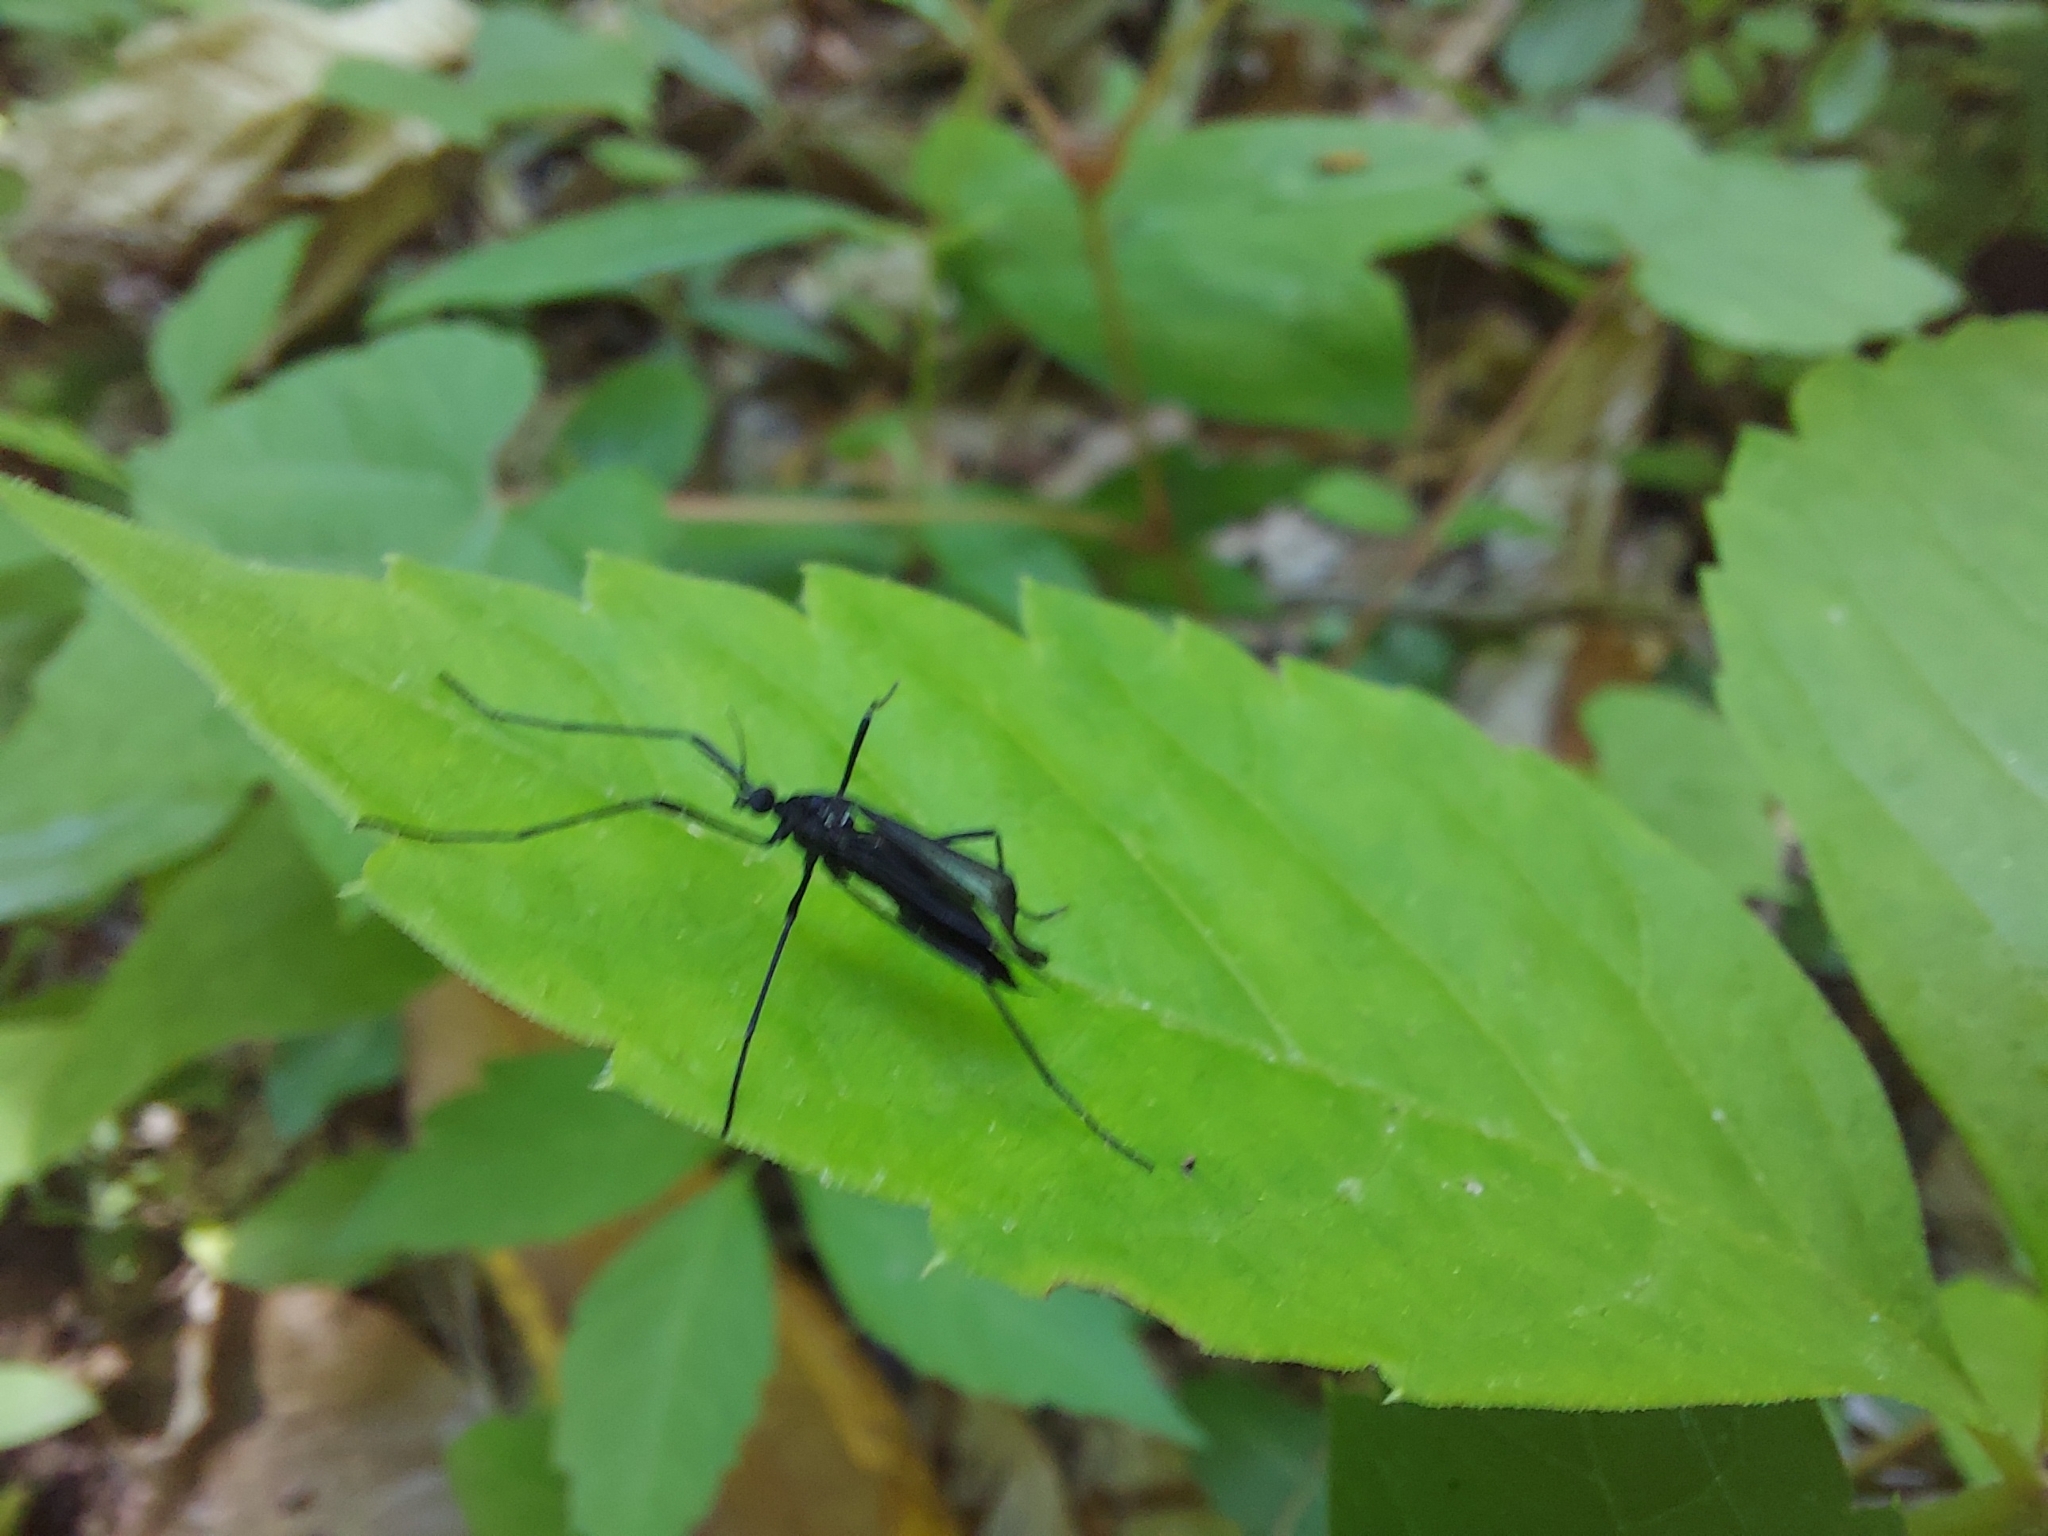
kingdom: Animalia
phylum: Arthropoda
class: Insecta
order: Diptera
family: Limoniidae
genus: Eugnophomyia
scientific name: Eugnophomyia luctuosa
